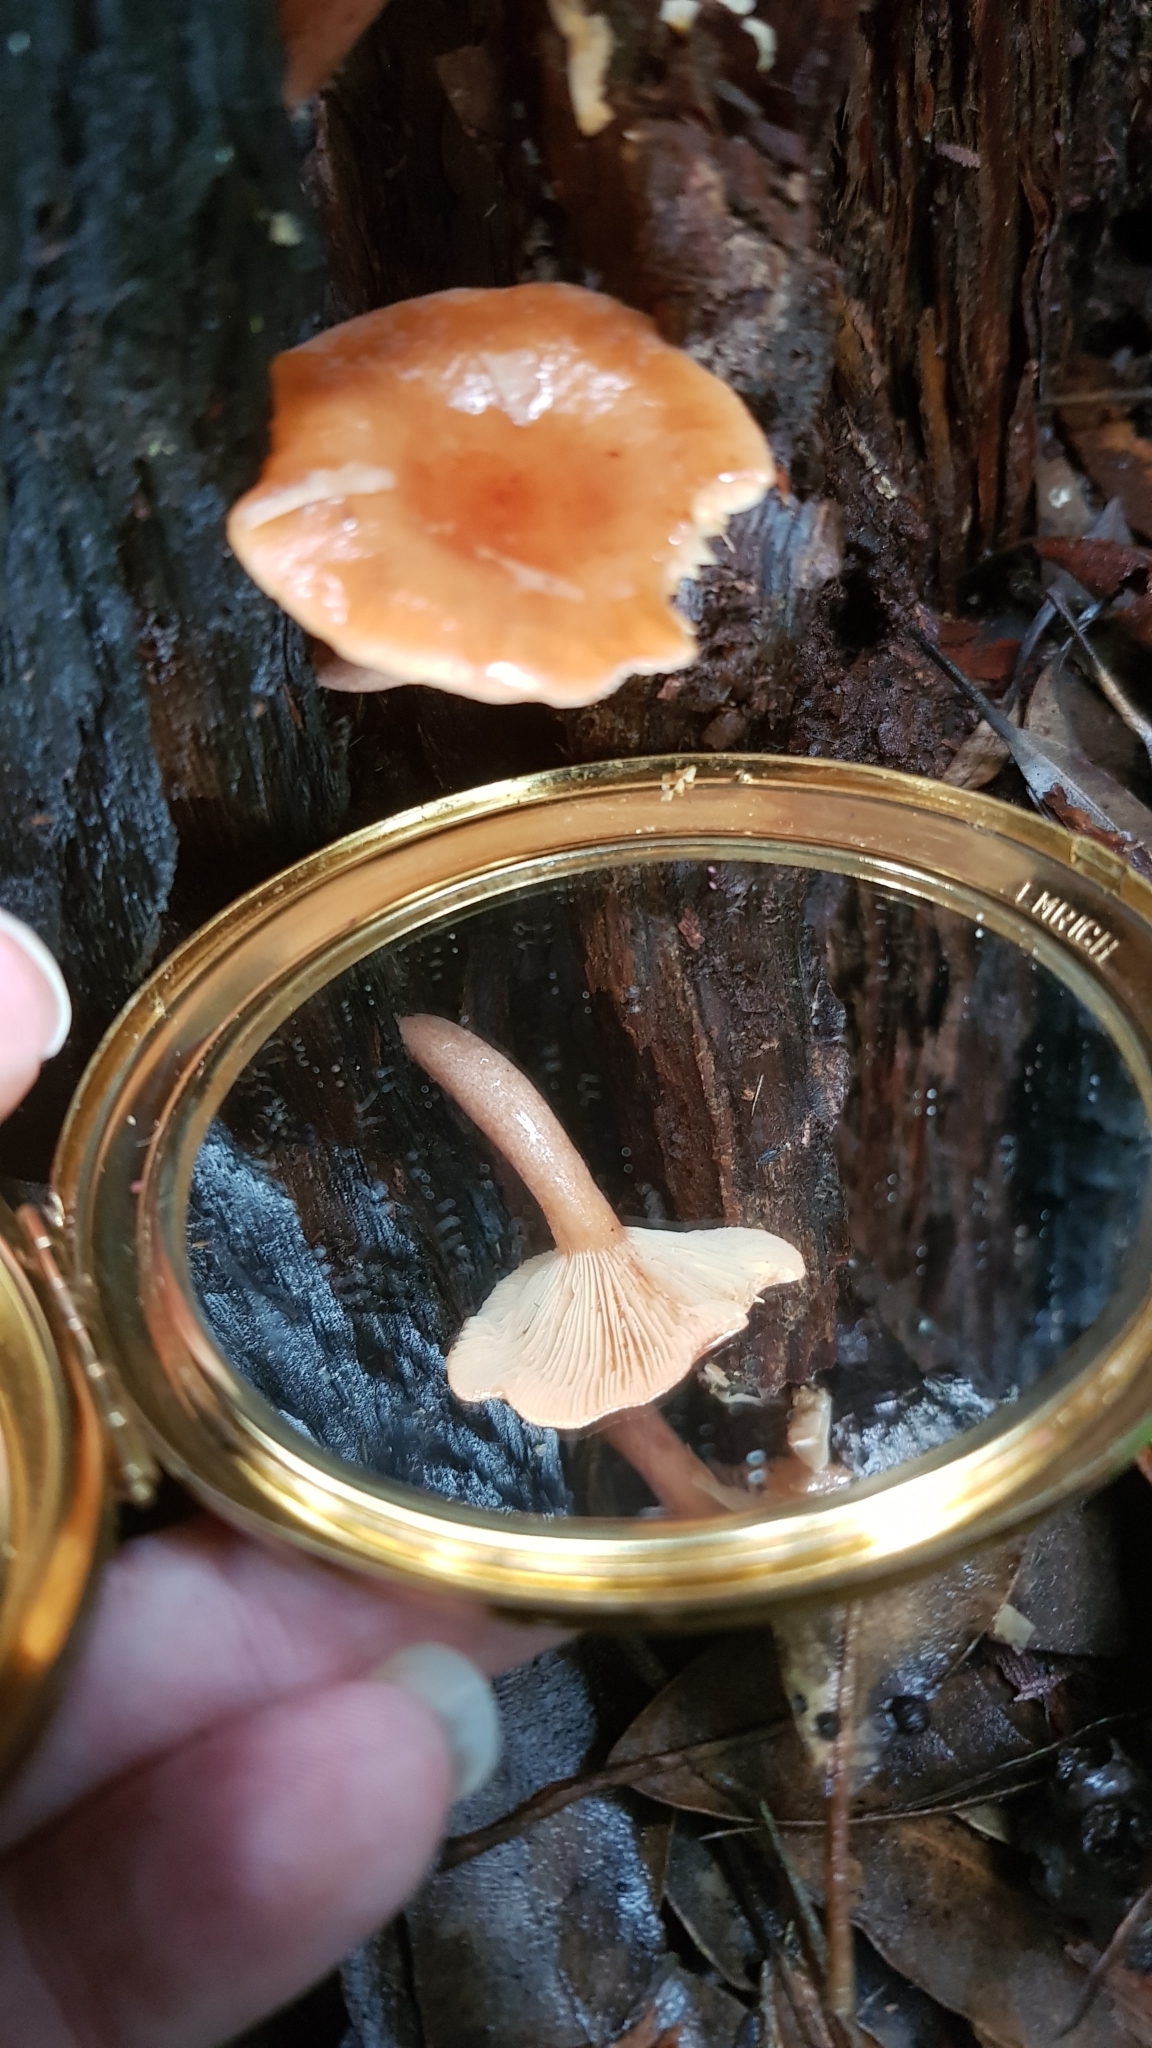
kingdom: Fungi
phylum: Basidiomycota
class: Agaricomycetes
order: Russulales
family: Russulaceae
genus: Lactarius
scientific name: Lactarius eucalypti
